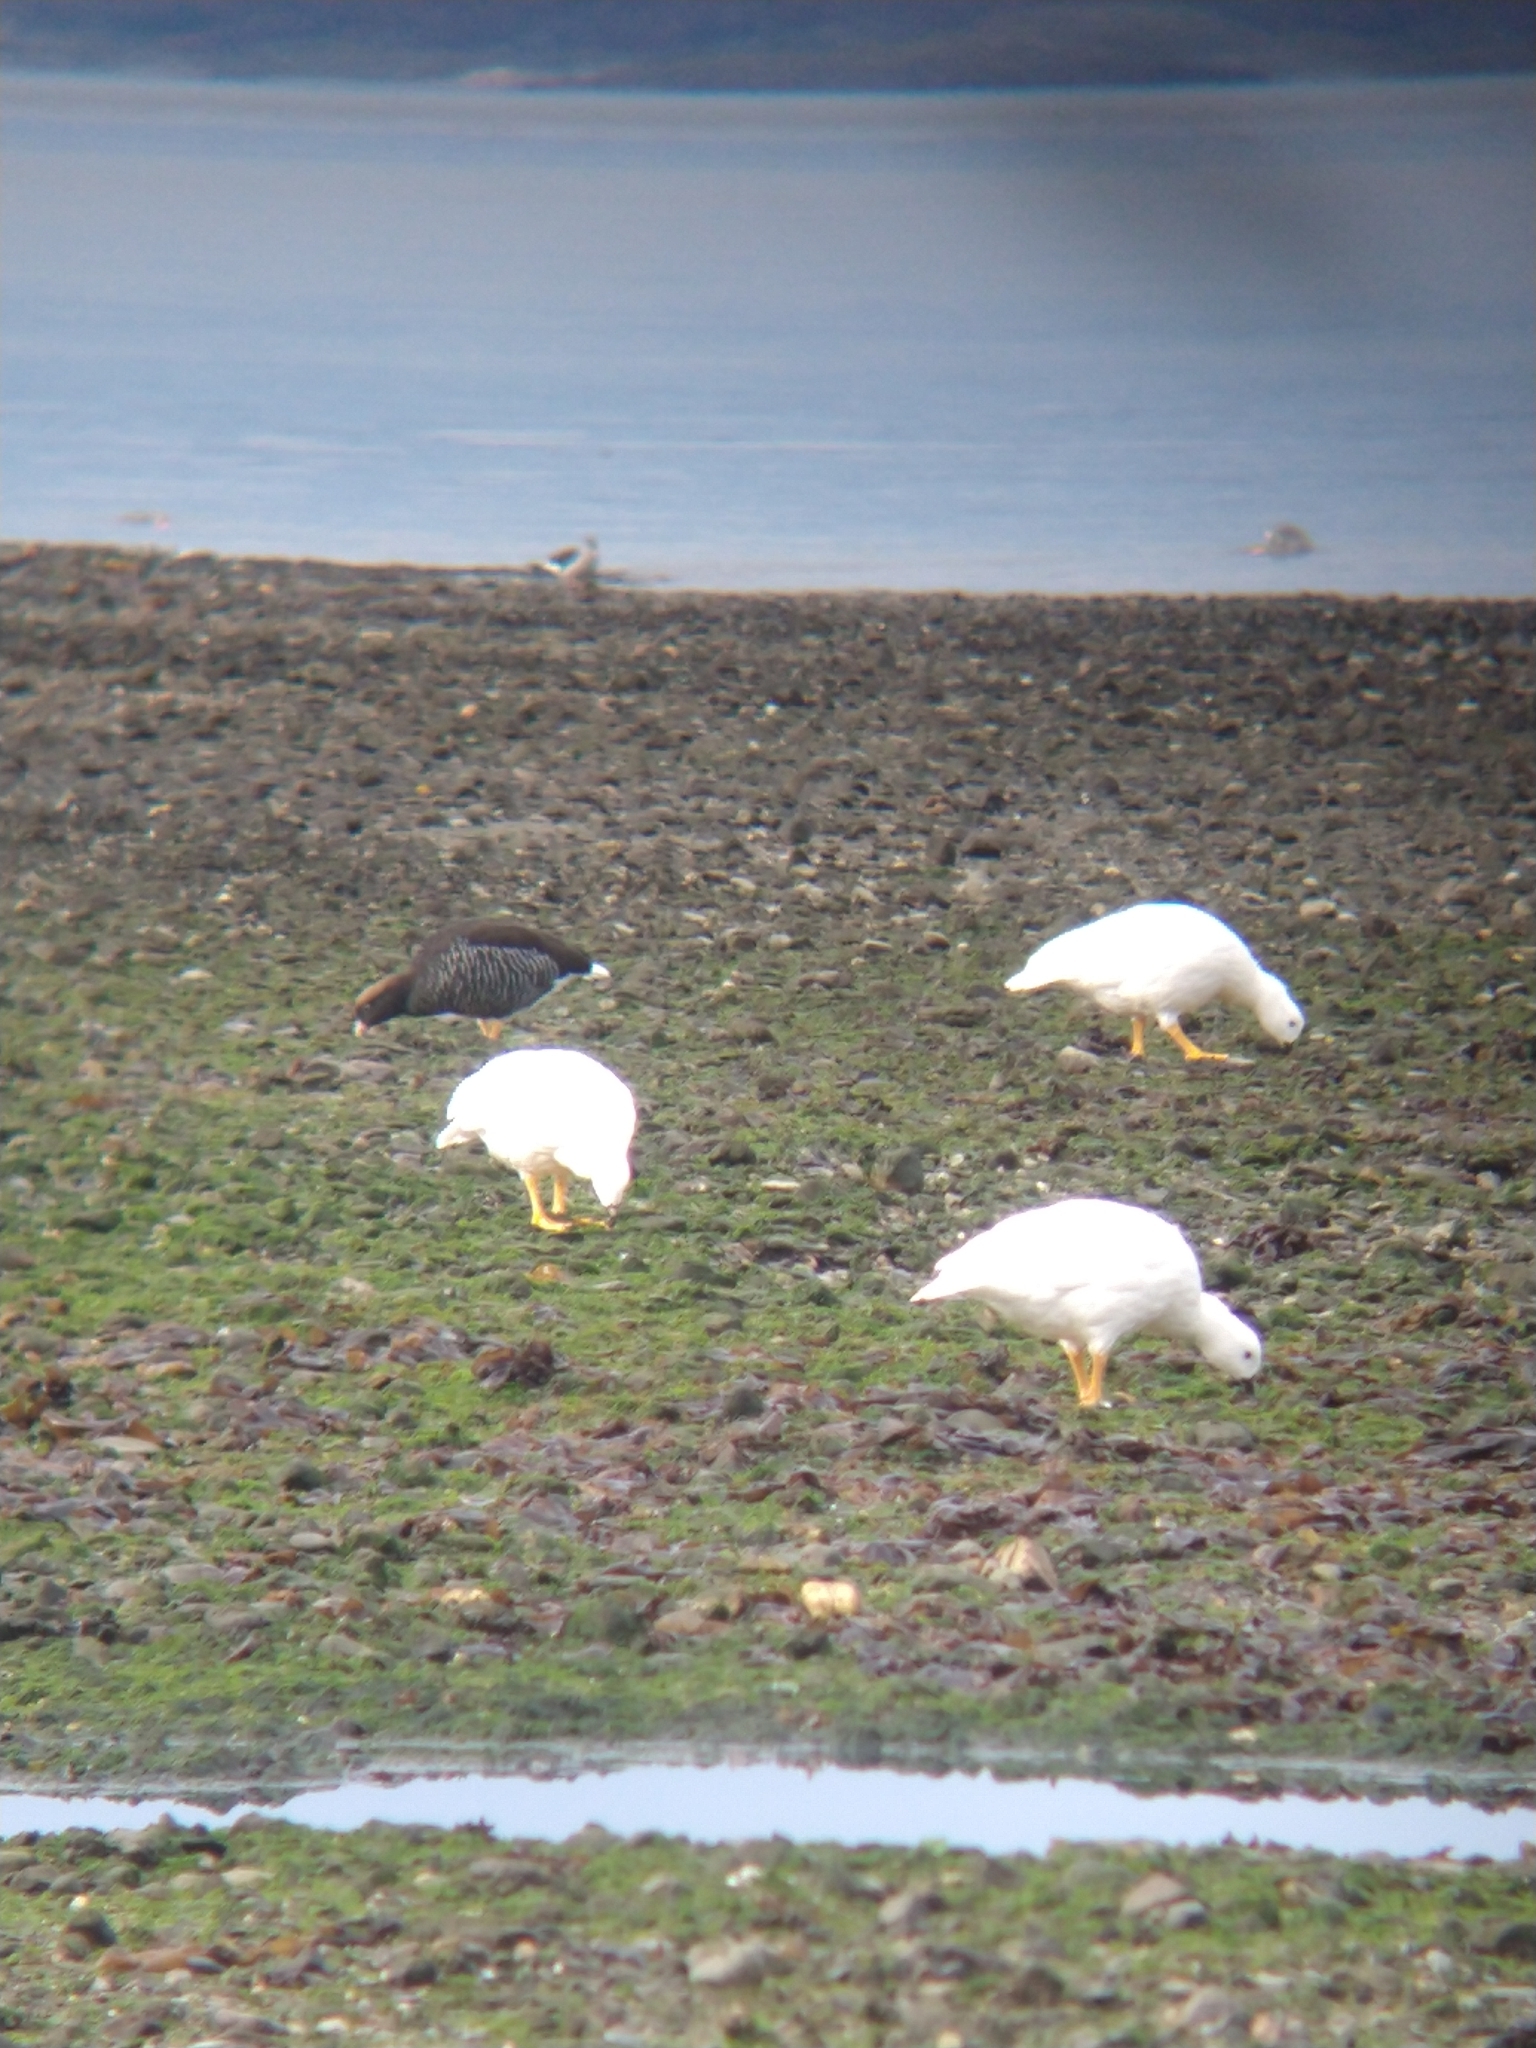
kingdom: Animalia
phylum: Chordata
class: Aves
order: Anseriformes
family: Anatidae
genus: Chloephaga
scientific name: Chloephaga hybrida
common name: Kelp goose
